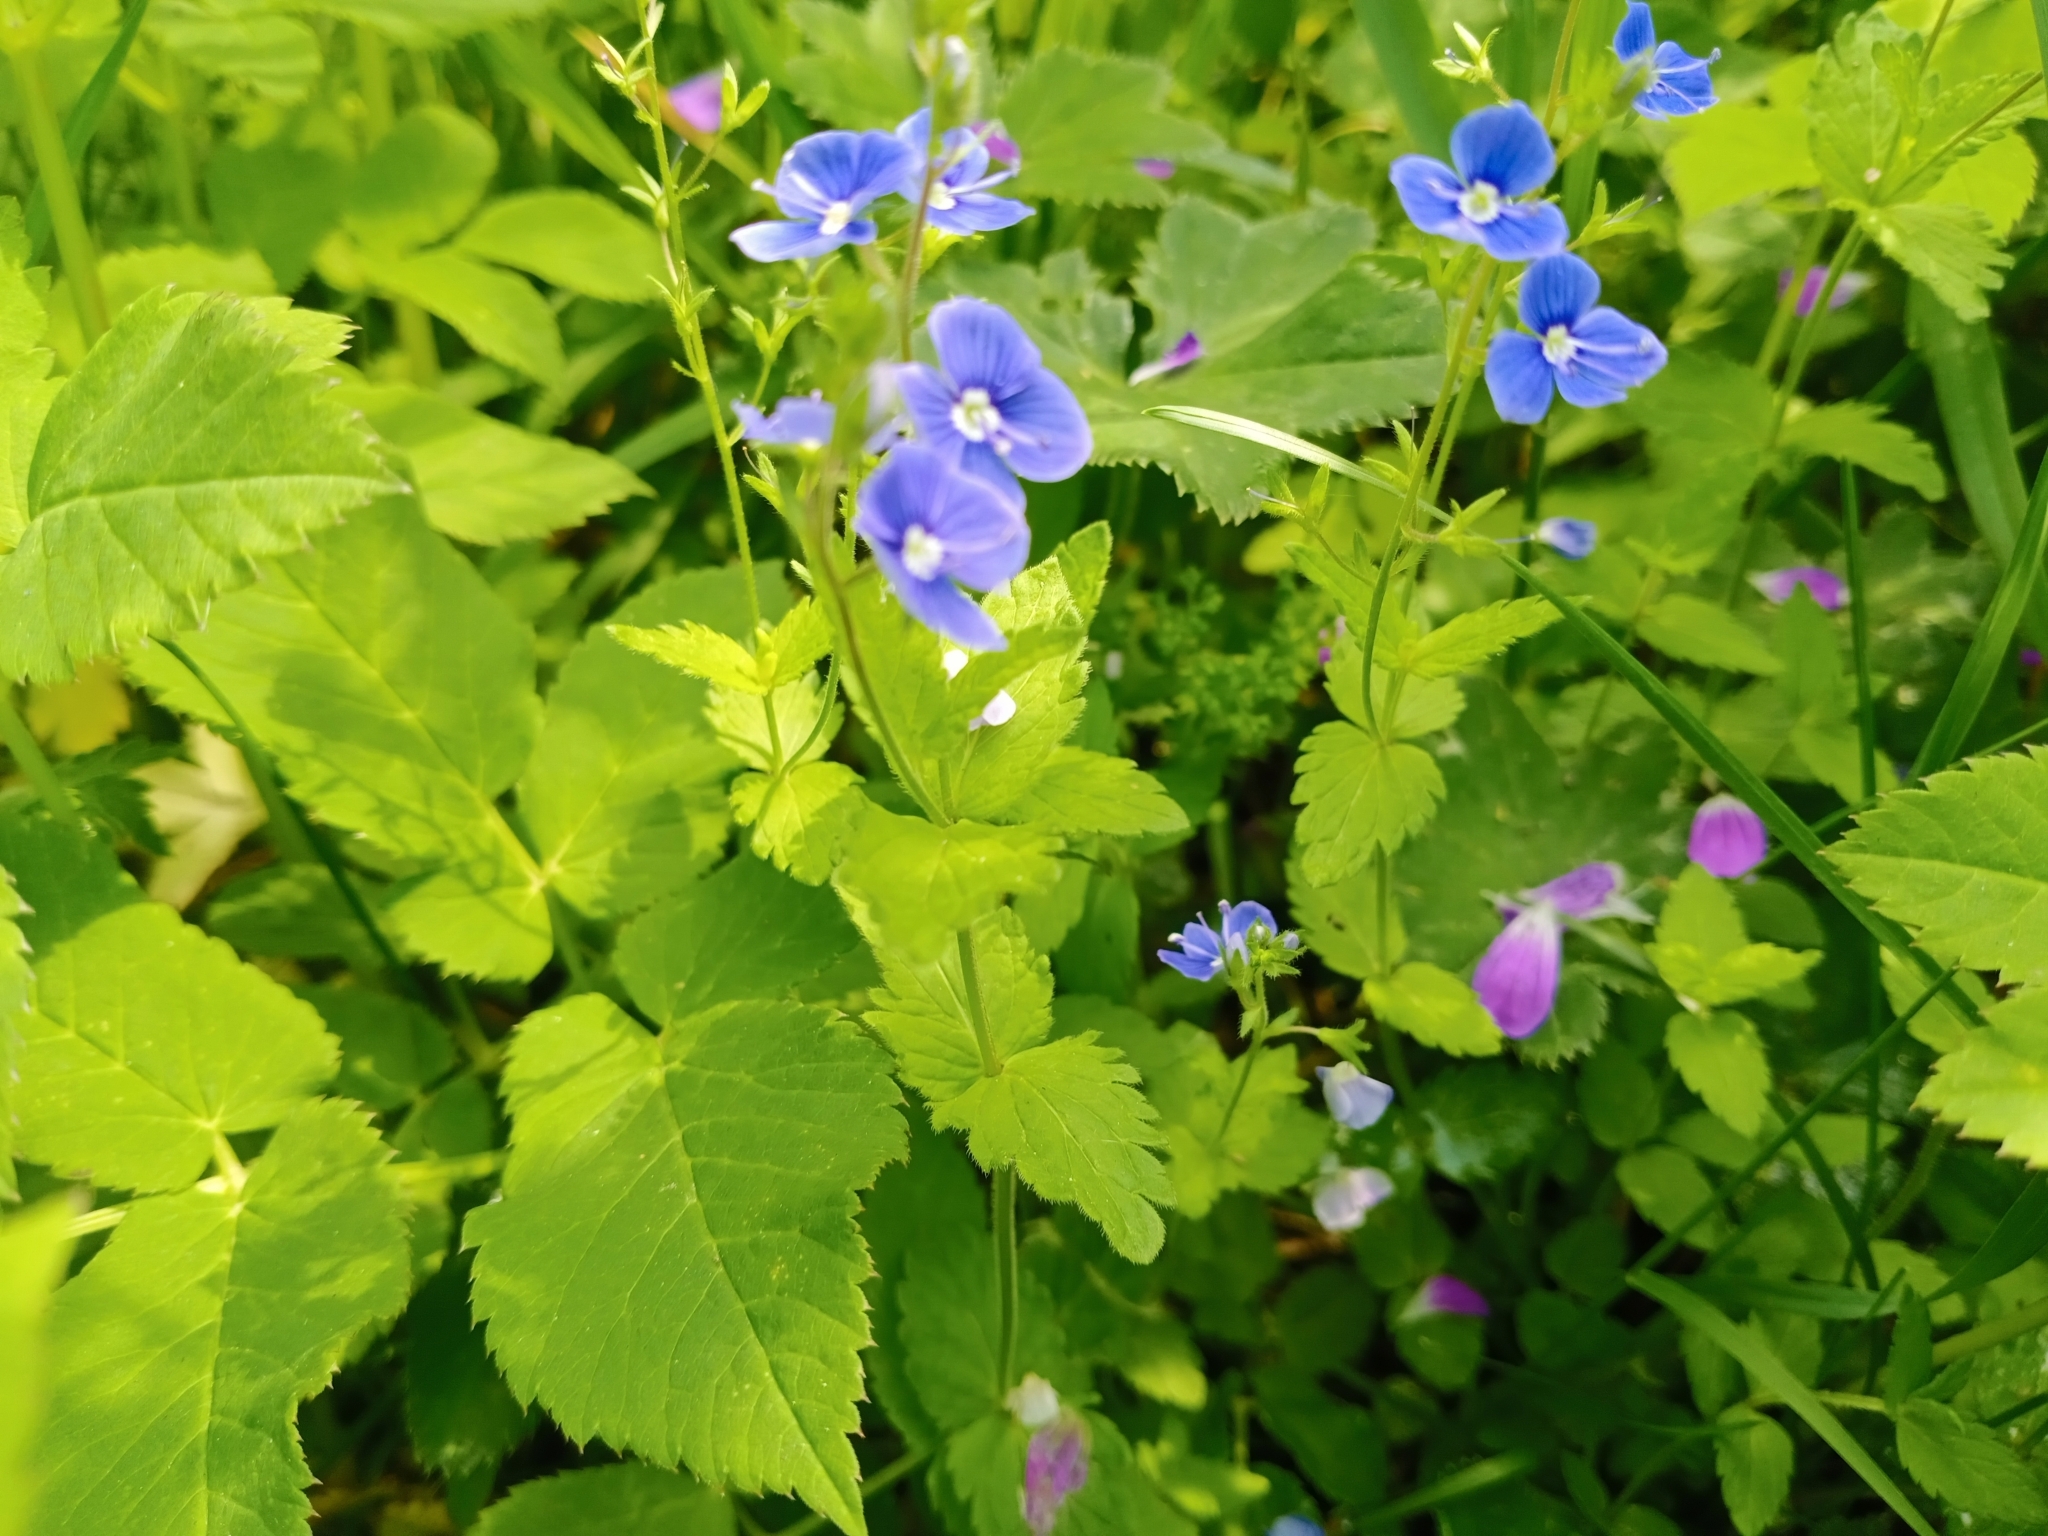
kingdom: Plantae
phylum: Tracheophyta
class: Magnoliopsida
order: Lamiales
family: Plantaginaceae
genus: Veronica
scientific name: Veronica chamaedrys
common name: Germander speedwell
